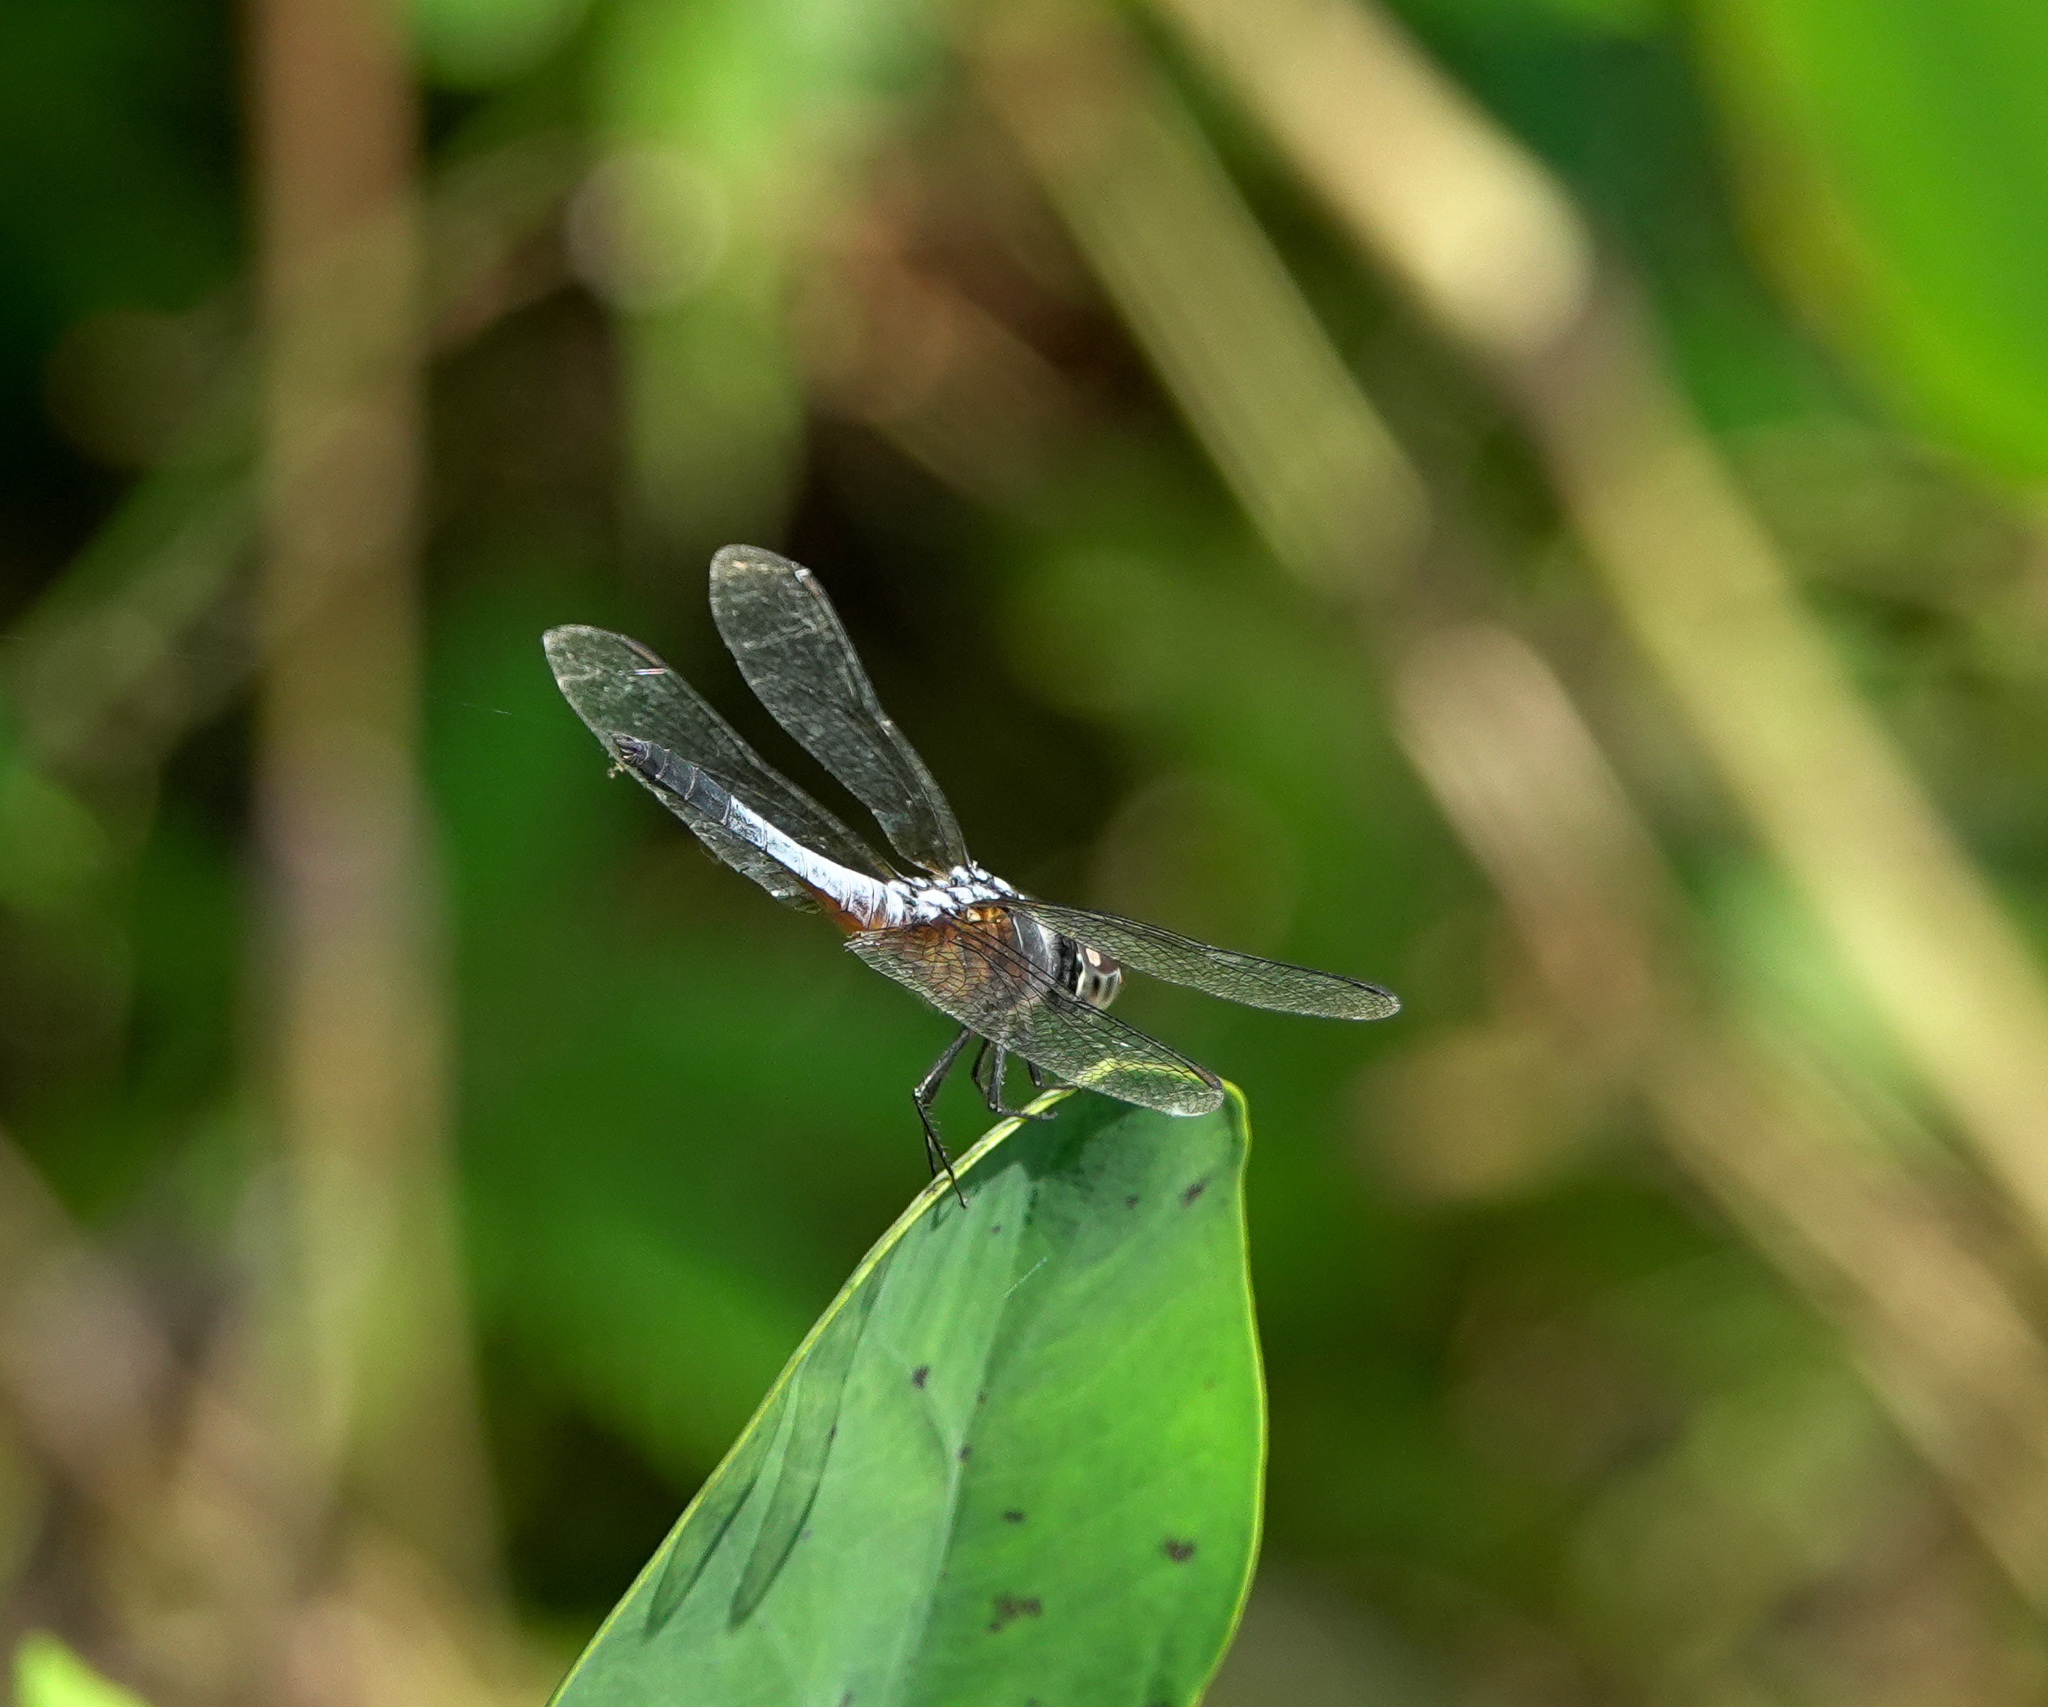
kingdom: Animalia
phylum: Arthropoda
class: Insecta
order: Odonata
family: Libellulidae
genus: Brachydiplax
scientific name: Brachydiplax chalybea
